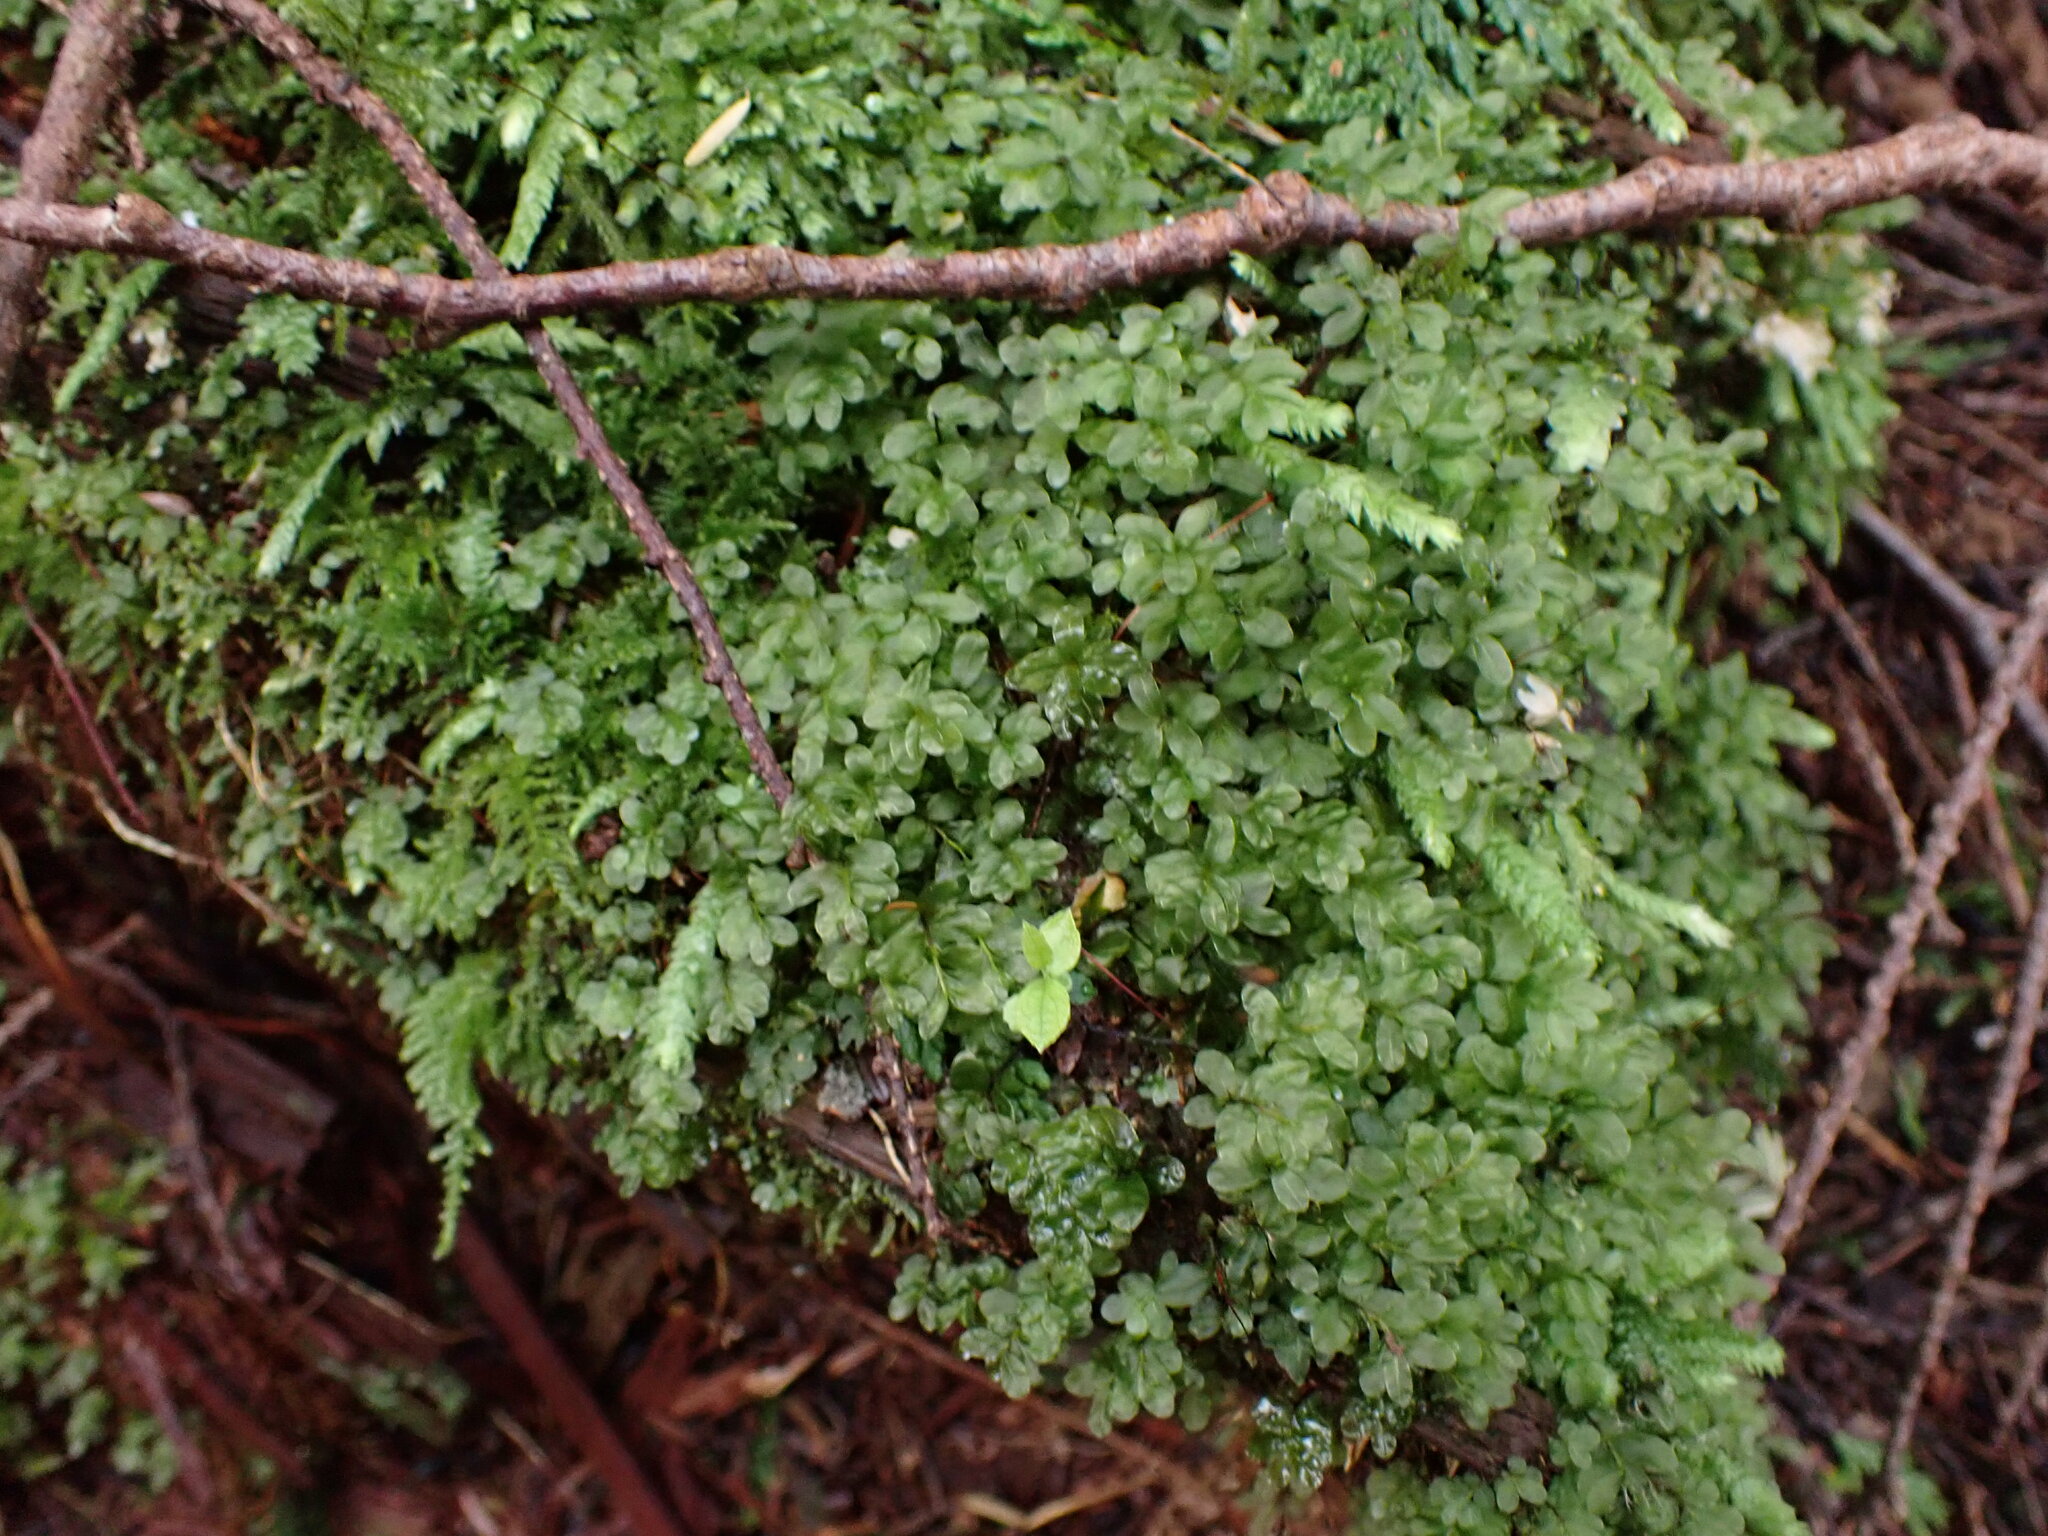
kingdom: Plantae
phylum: Bryophyta
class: Bryopsida
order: Bryales
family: Mniaceae
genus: Rhizomnium
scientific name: Rhizomnium glabrescens
